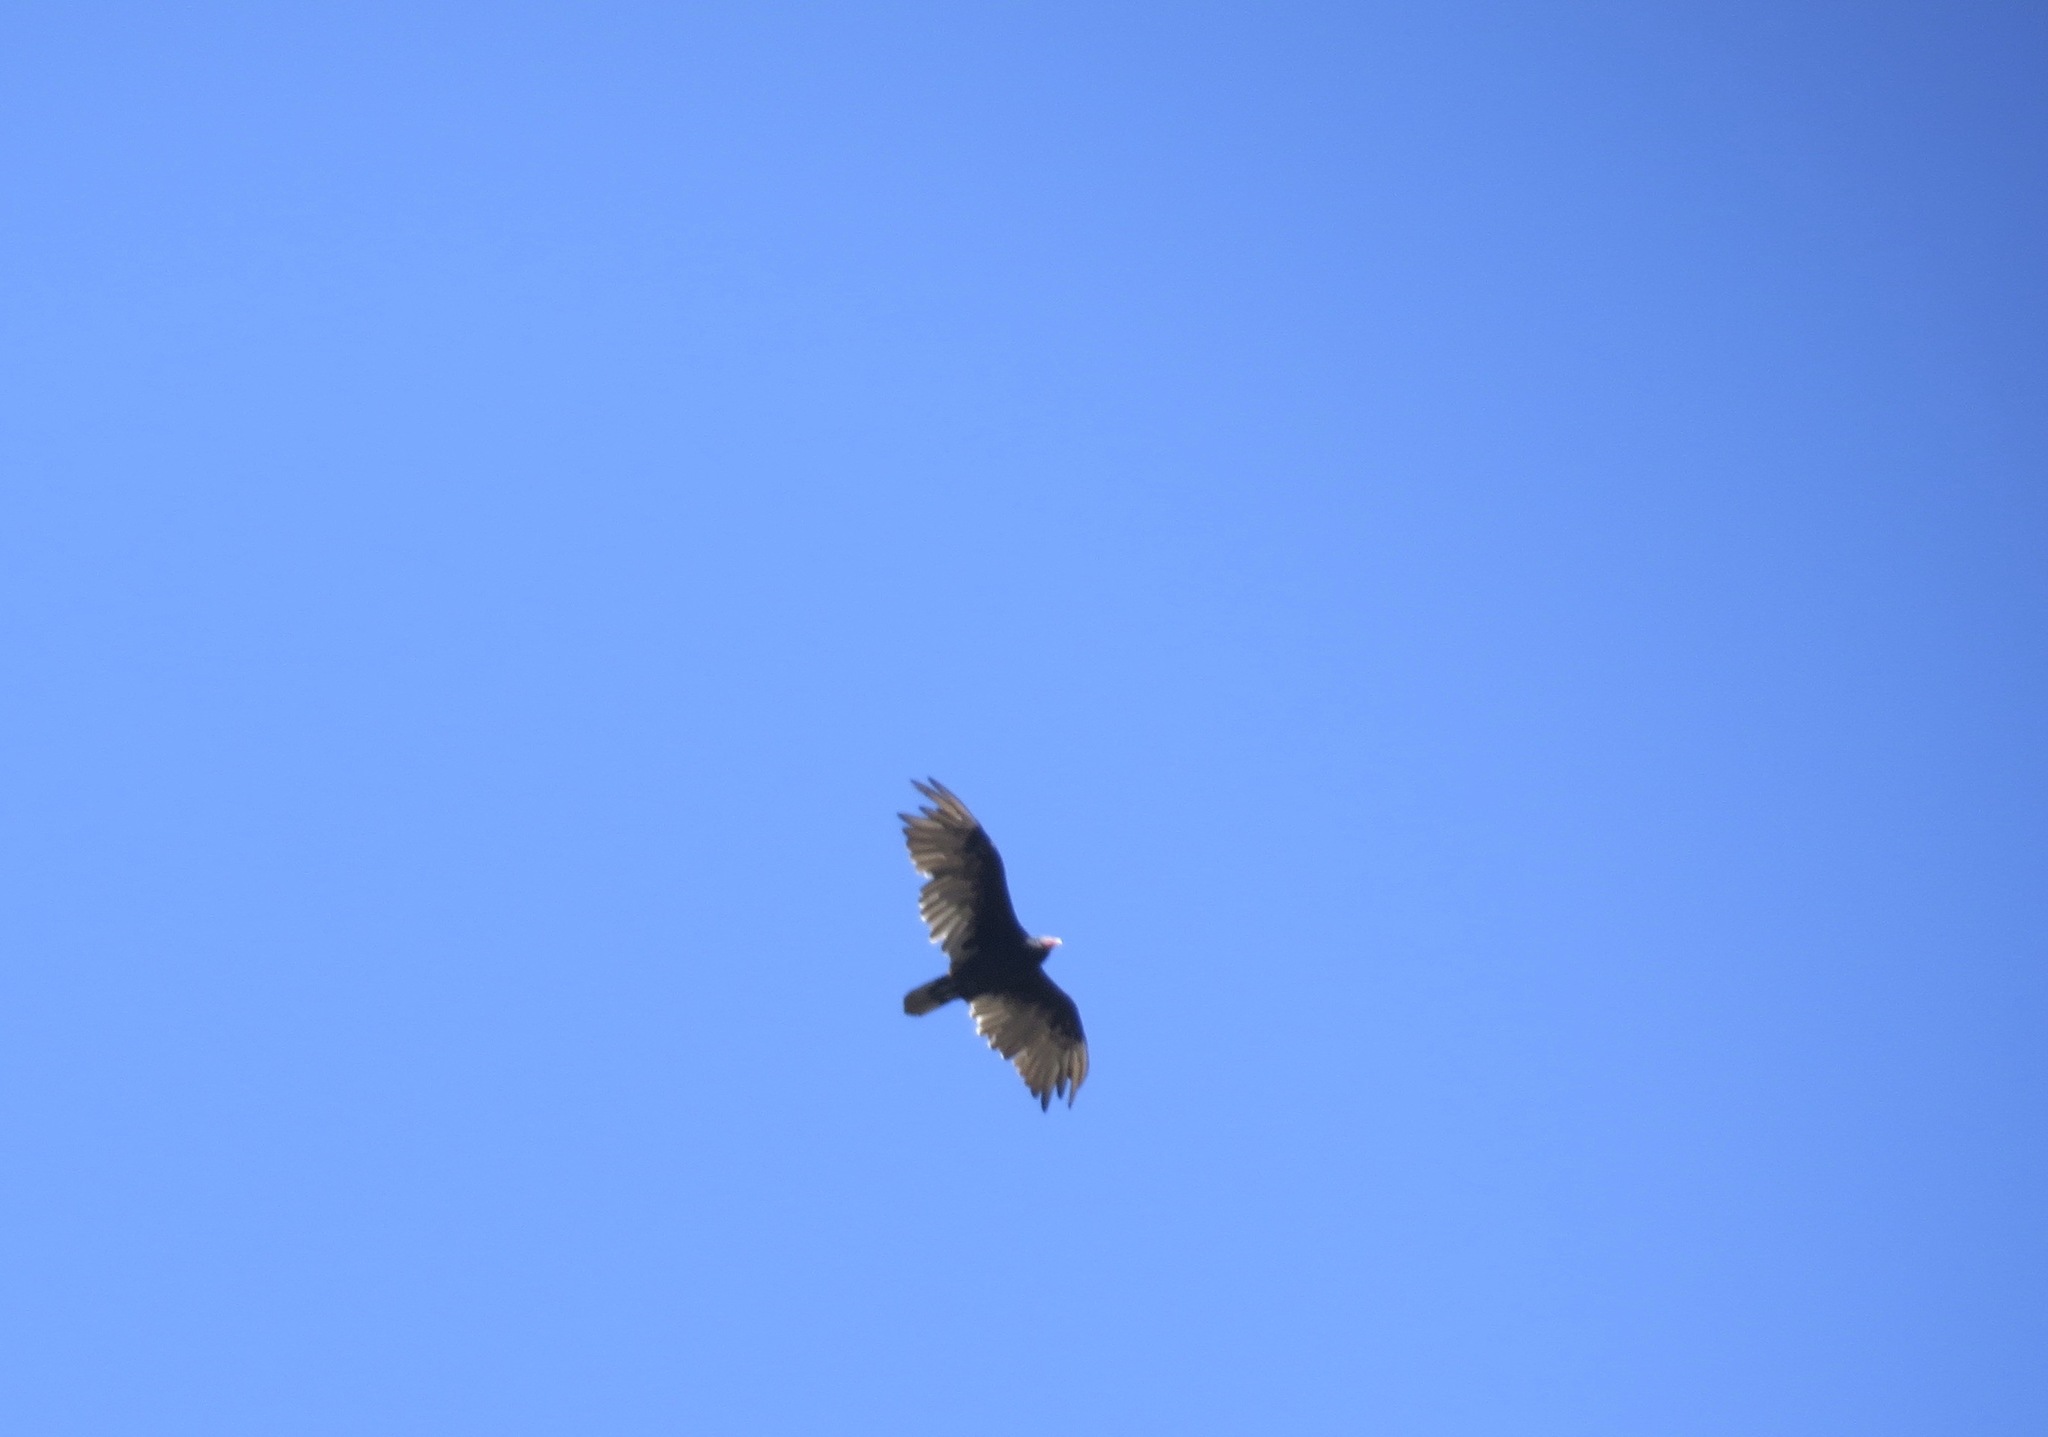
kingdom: Animalia
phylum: Chordata
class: Aves
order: Accipitriformes
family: Cathartidae
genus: Cathartes
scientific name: Cathartes aura
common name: Turkey vulture
